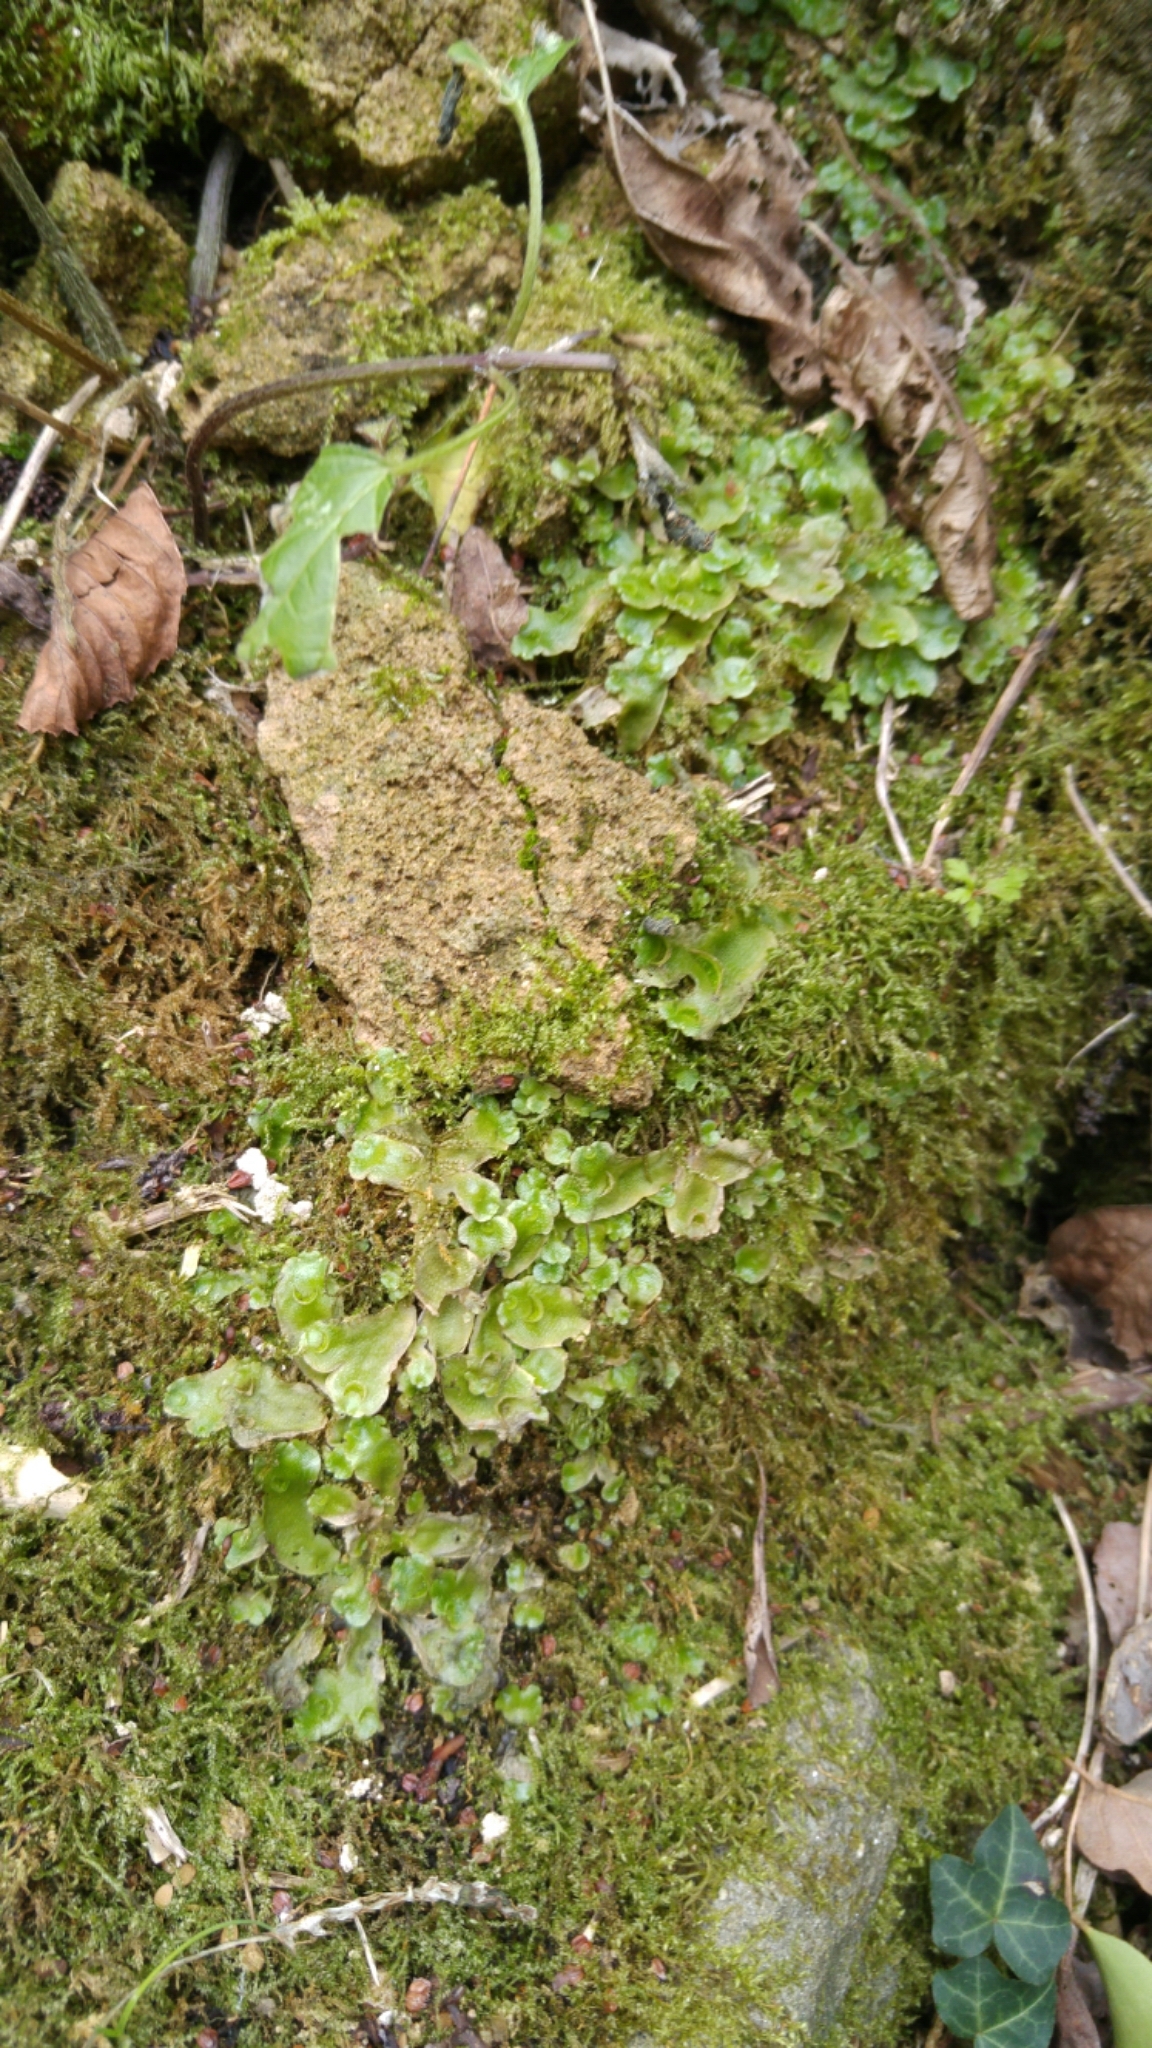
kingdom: Plantae
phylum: Marchantiophyta
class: Marchantiopsida
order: Lunulariales
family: Lunulariaceae
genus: Lunularia
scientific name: Lunularia cruciata
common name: Crescent-cup liverwort
